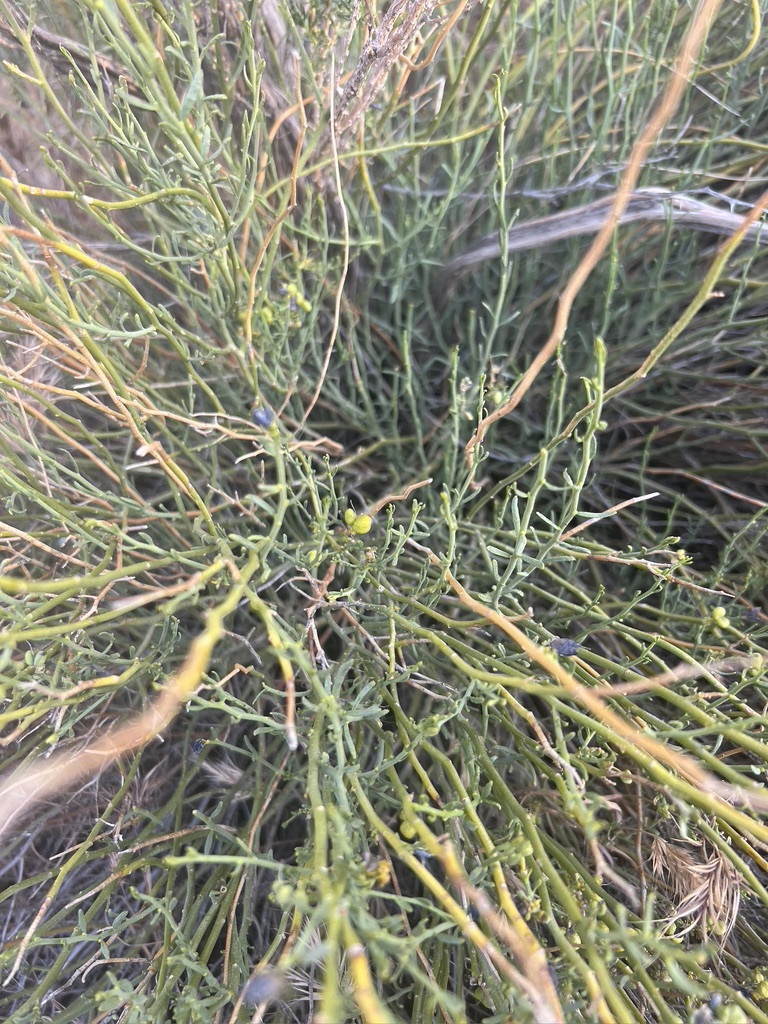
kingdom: Plantae
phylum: Tracheophyta
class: Magnoliopsida
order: Sapindales
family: Rutaceae
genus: Thamnosma
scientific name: Thamnosma montana
